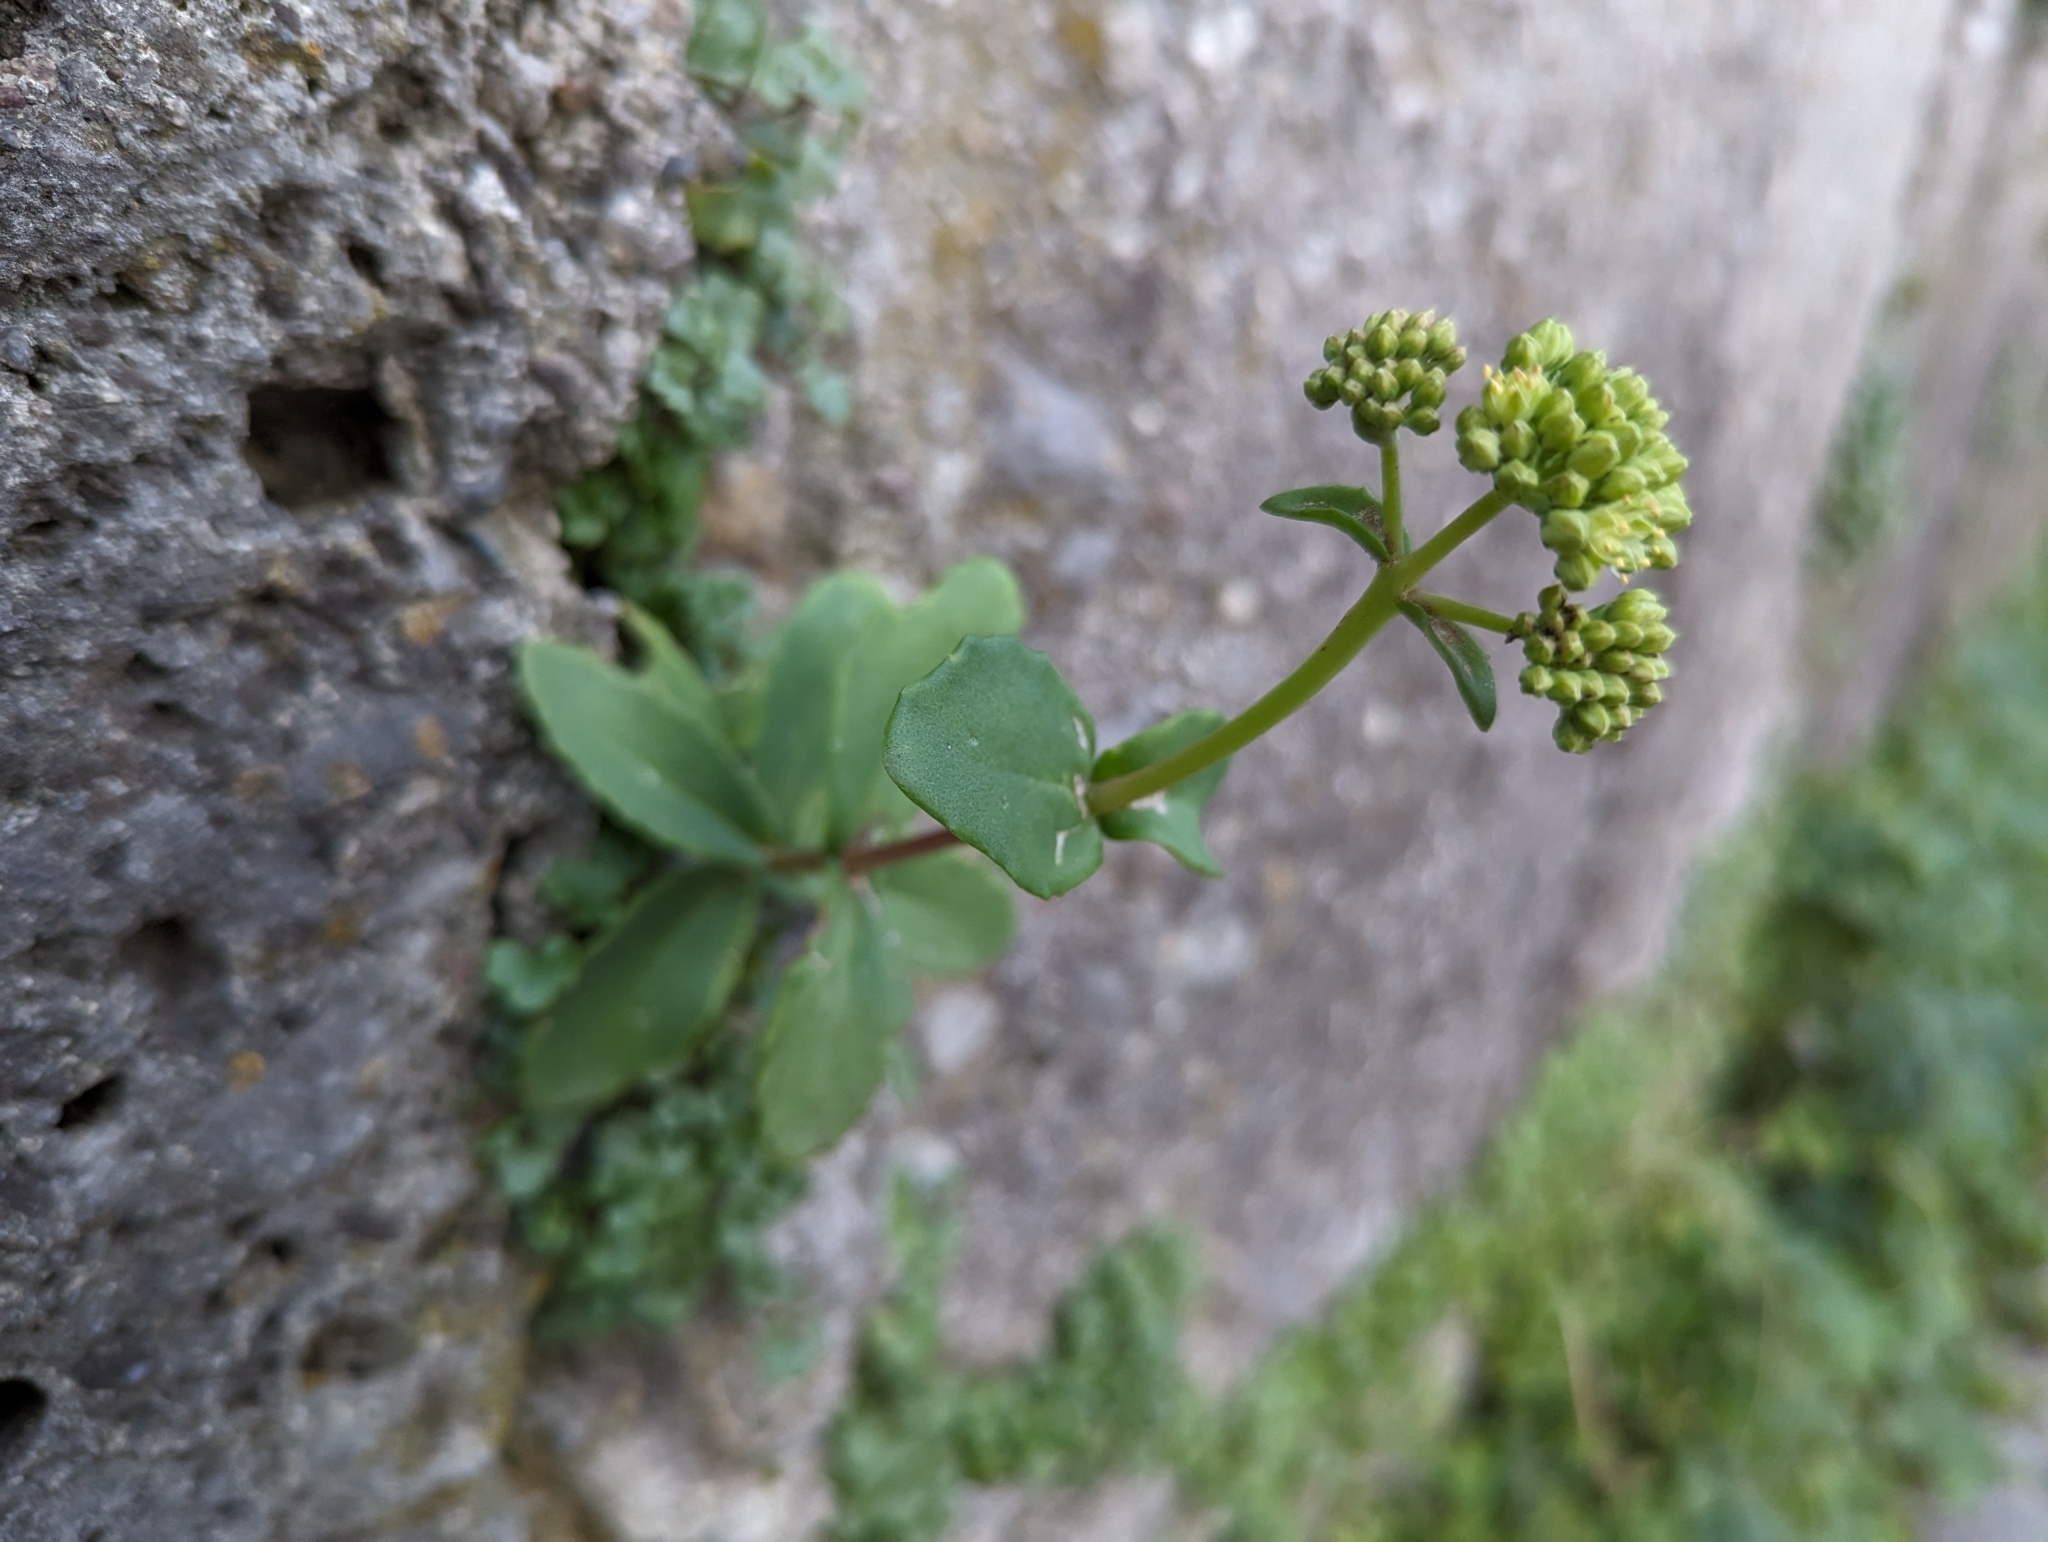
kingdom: Plantae
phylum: Tracheophyta
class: Magnoliopsida
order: Saxifragales
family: Crassulaceae
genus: Hylotelephium
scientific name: Hylotelephium maximum
